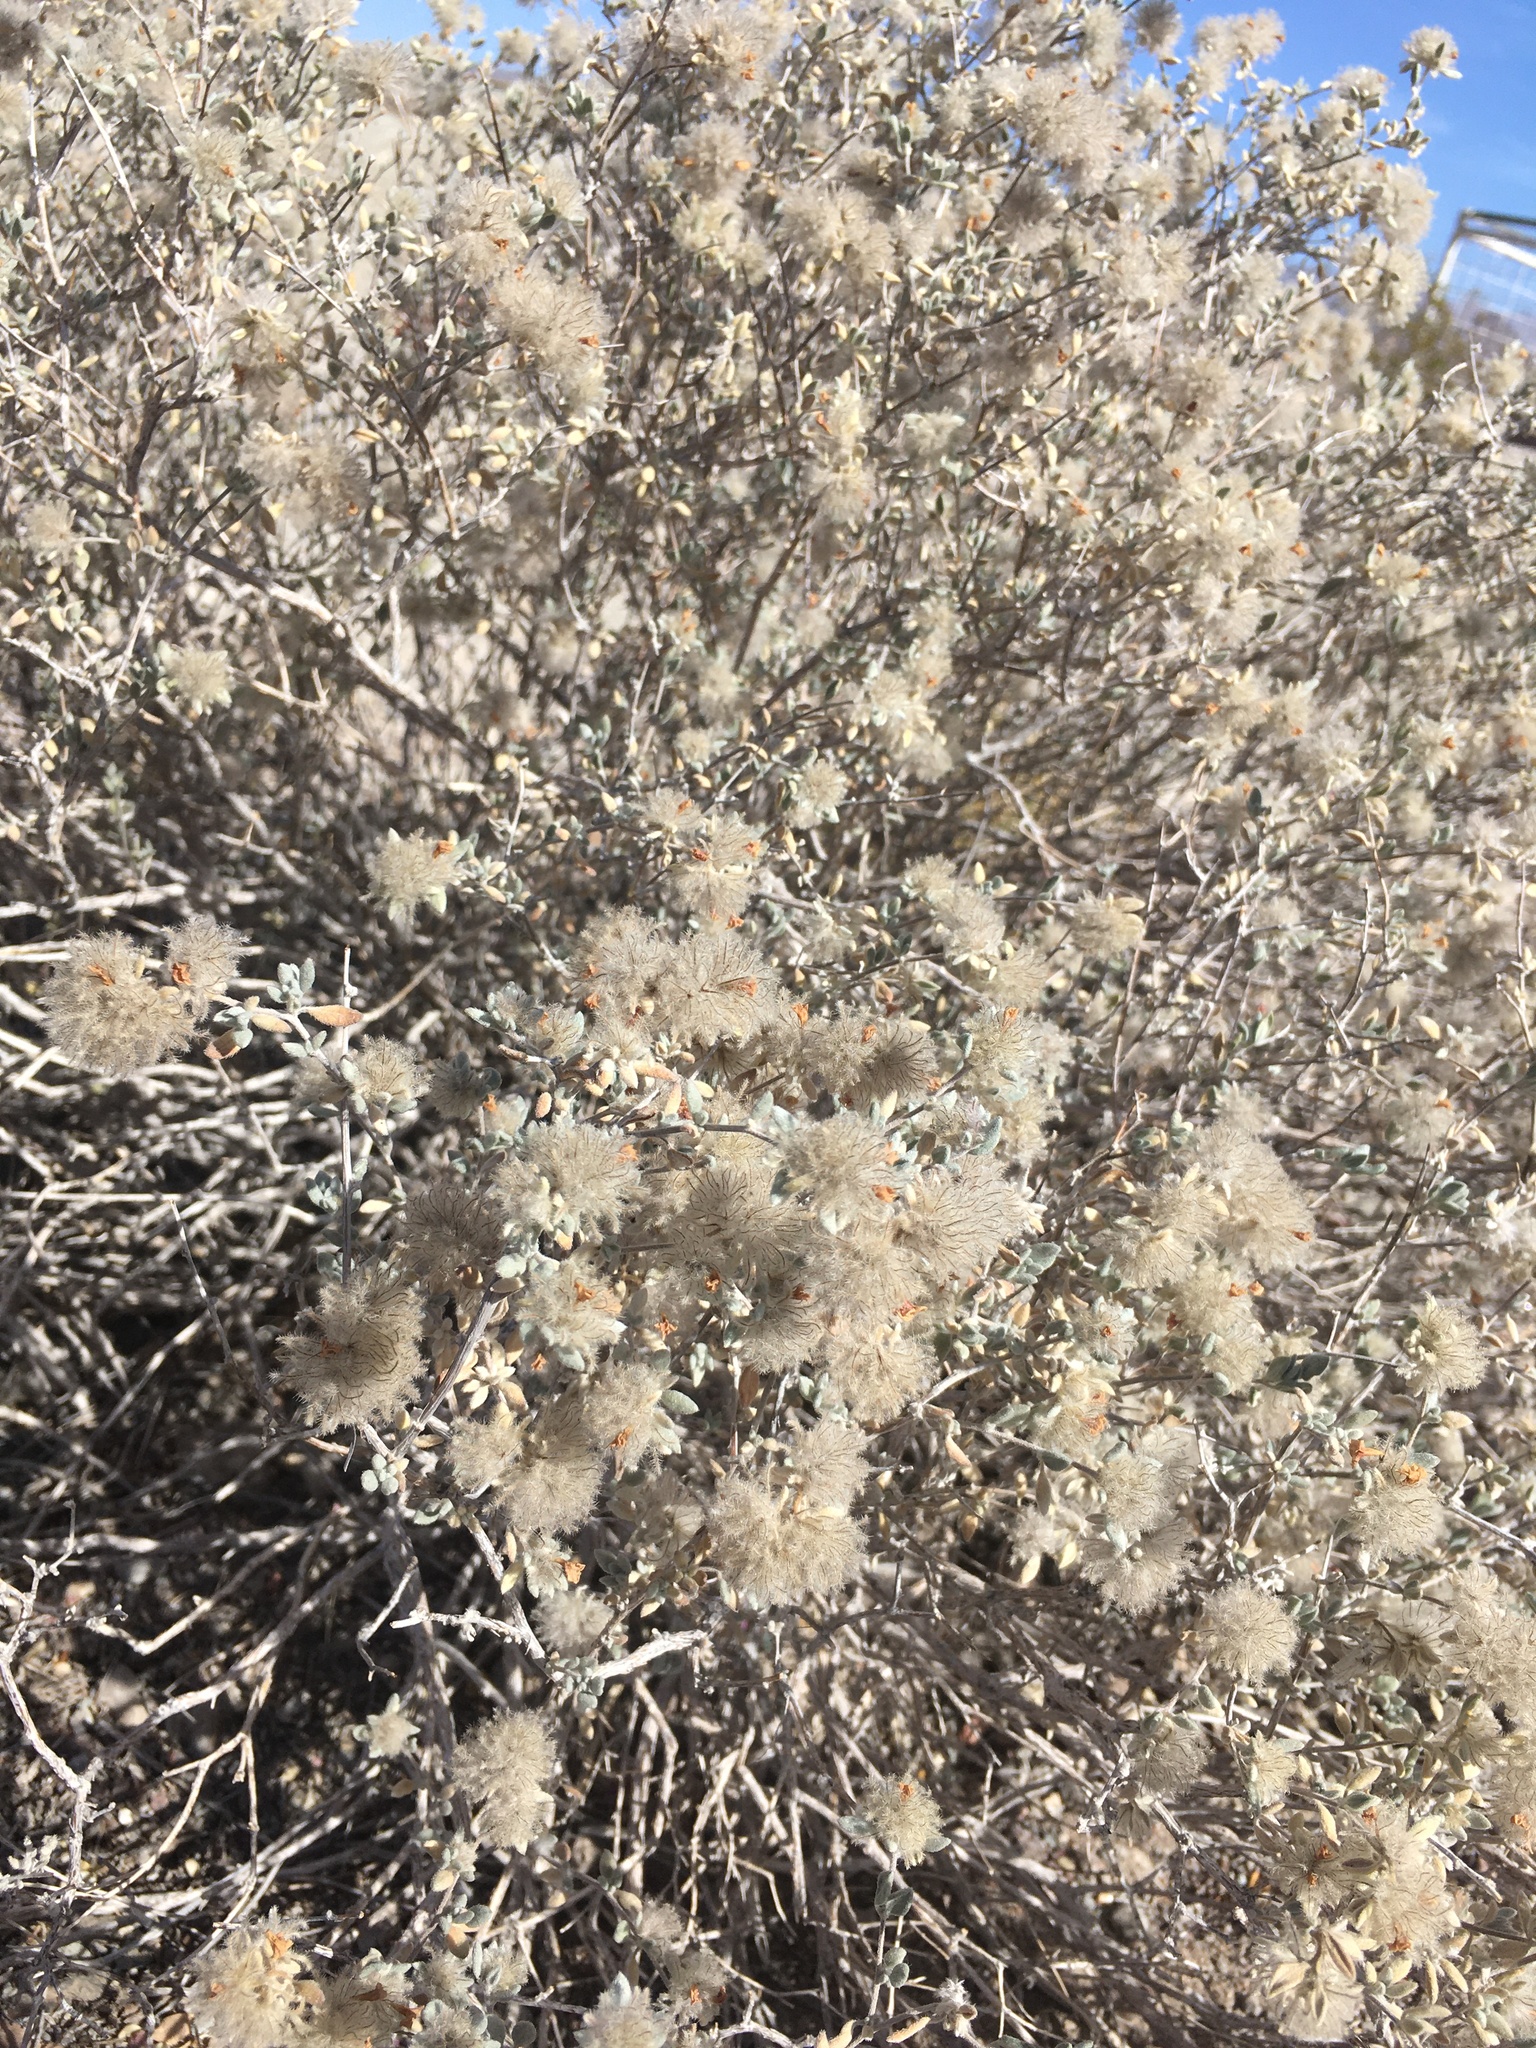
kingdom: Plantae
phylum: Tracheophyta
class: Magnoliopsida
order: Boraginales
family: Ehretiaceae
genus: Tiquilia
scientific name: Tiquilia greggii
